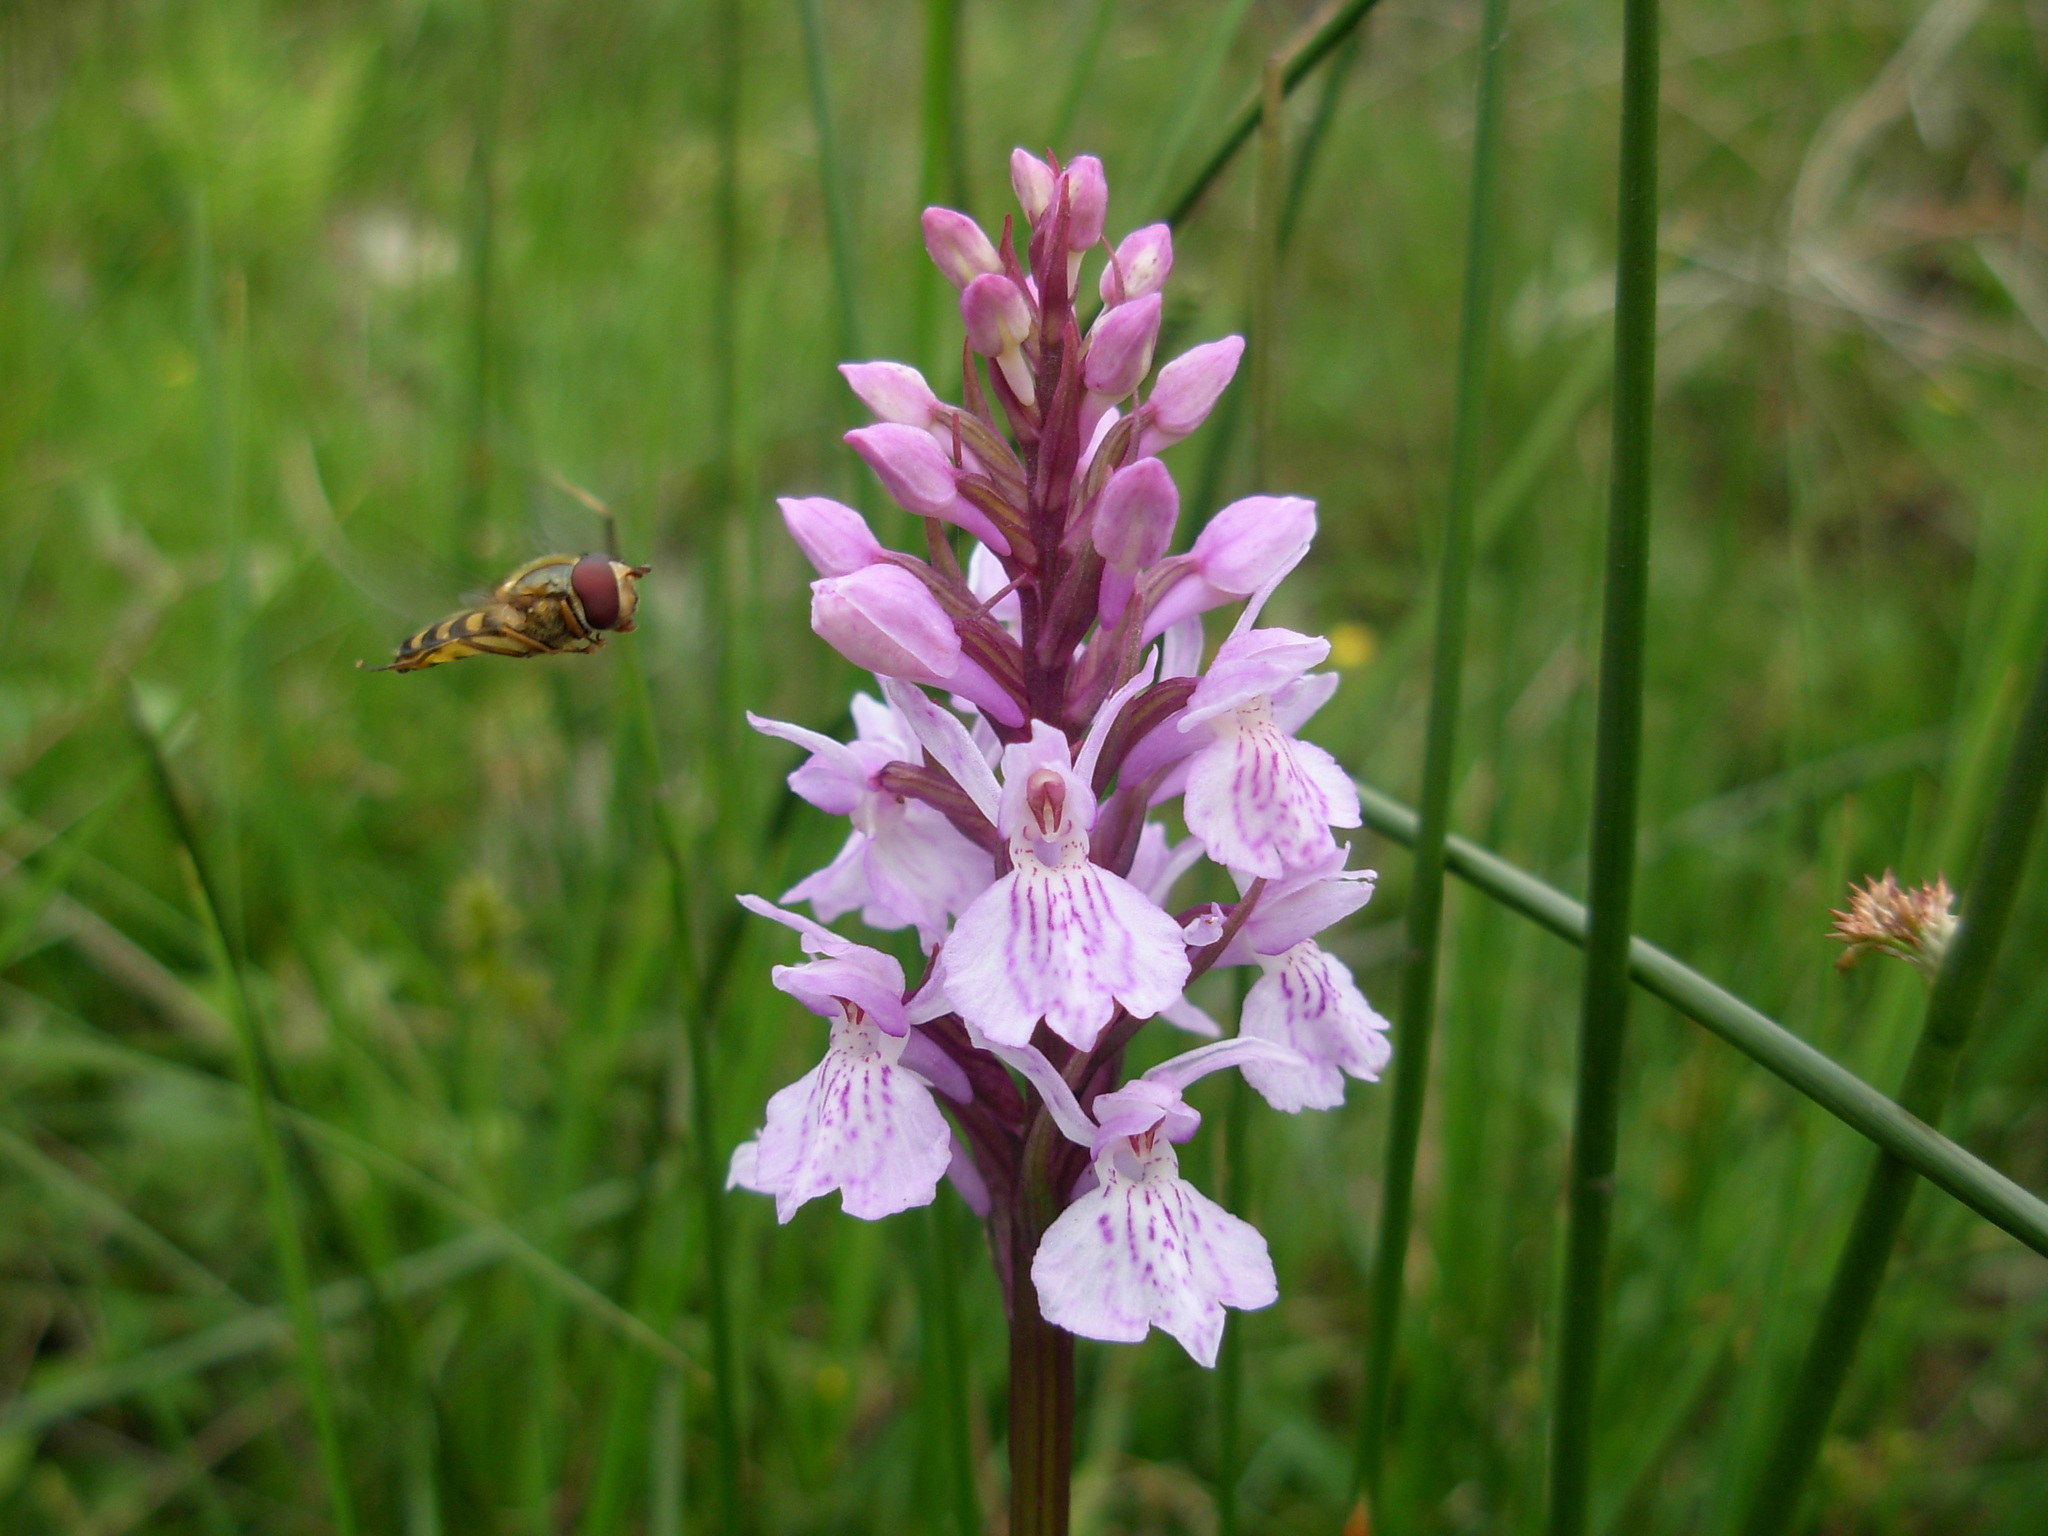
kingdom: Plantae
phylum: Tracheophyta
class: Liliopsida
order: Asparagales
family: Orchidaceae
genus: Dactylorhiza
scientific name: Dactylorhiza maculata
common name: Heath spotted-orchid
